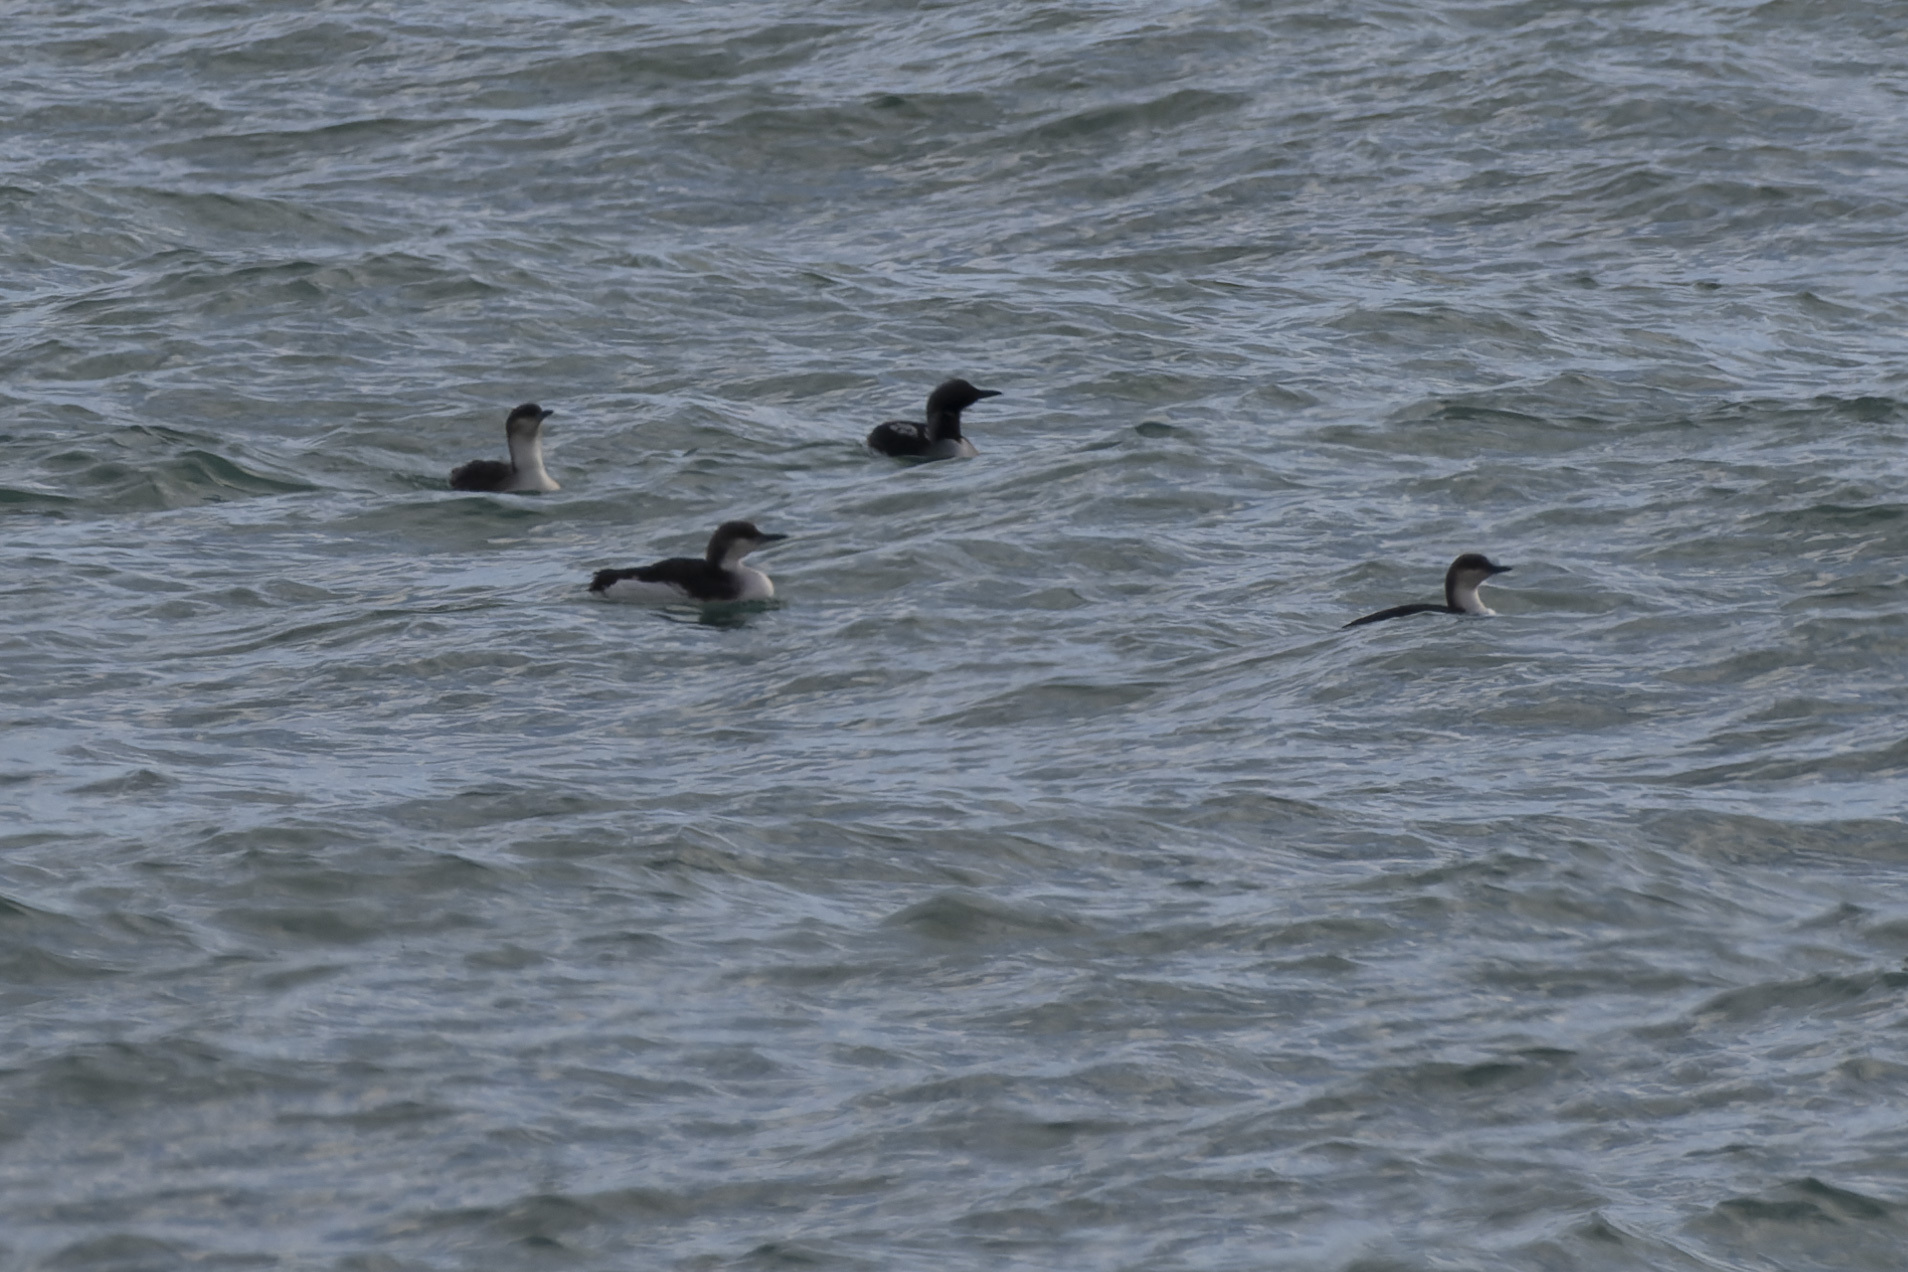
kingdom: Animalia
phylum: Chordata
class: Aves
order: Gaviiformes
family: Gaviidae
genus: Gavia
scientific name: Gavia arctica
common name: Black-throated loon
